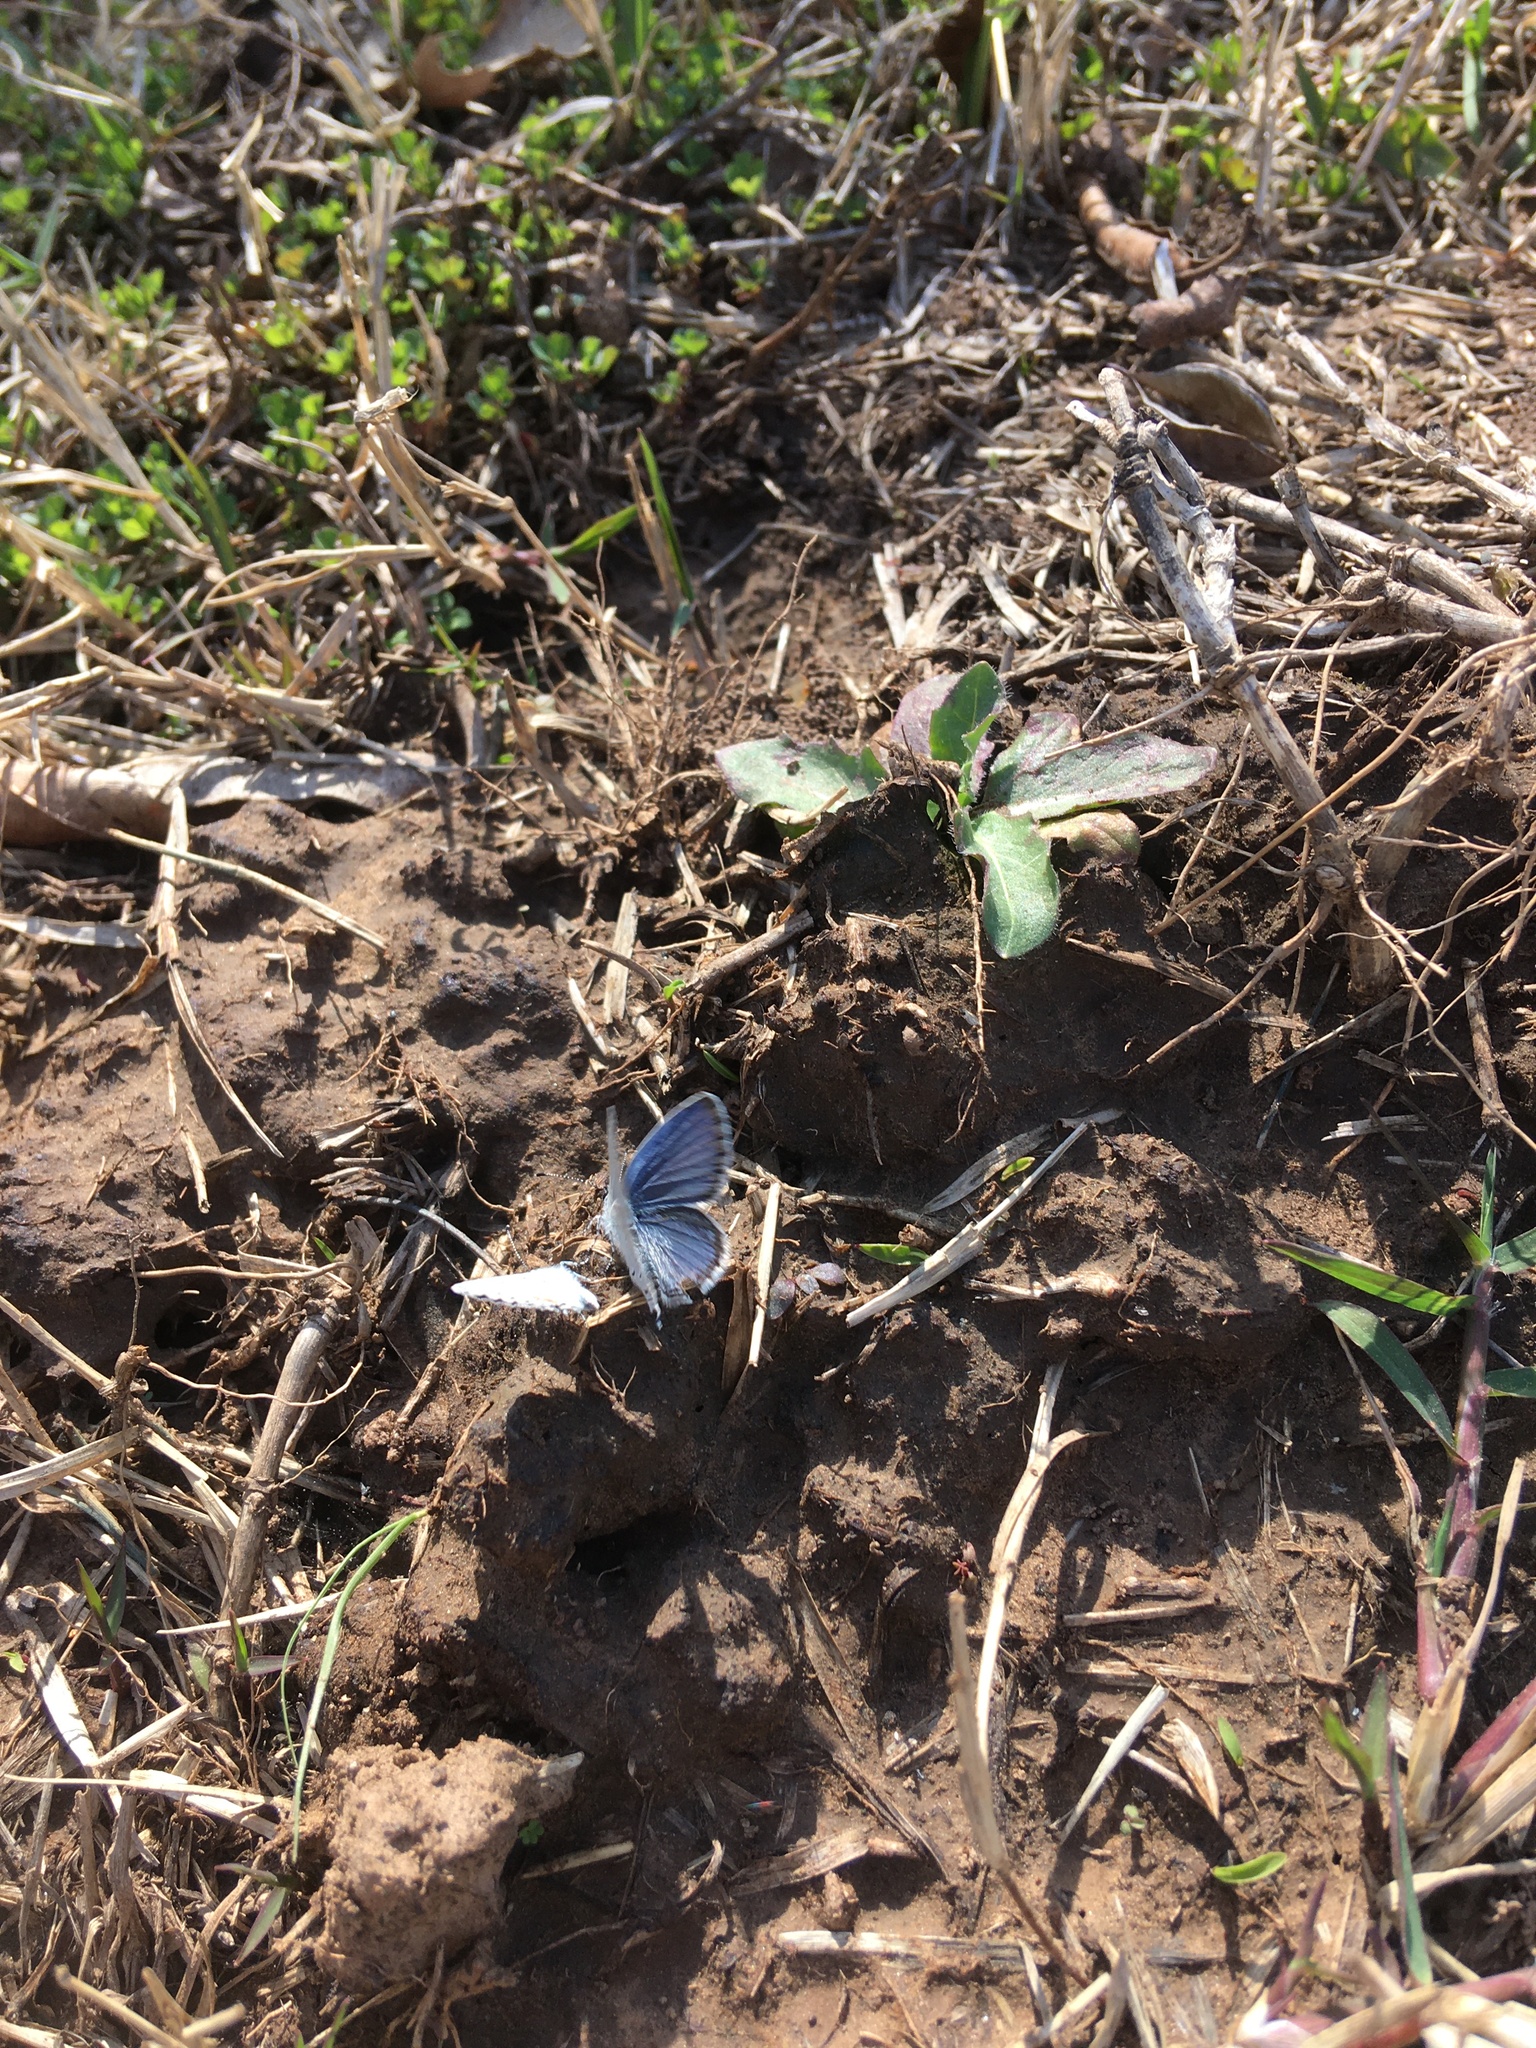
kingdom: Animalia
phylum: Arthropoda
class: Insecta
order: Lepidoptera
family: Lycaenidae
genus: Elkalyce
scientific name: Elkalyce comyntas
